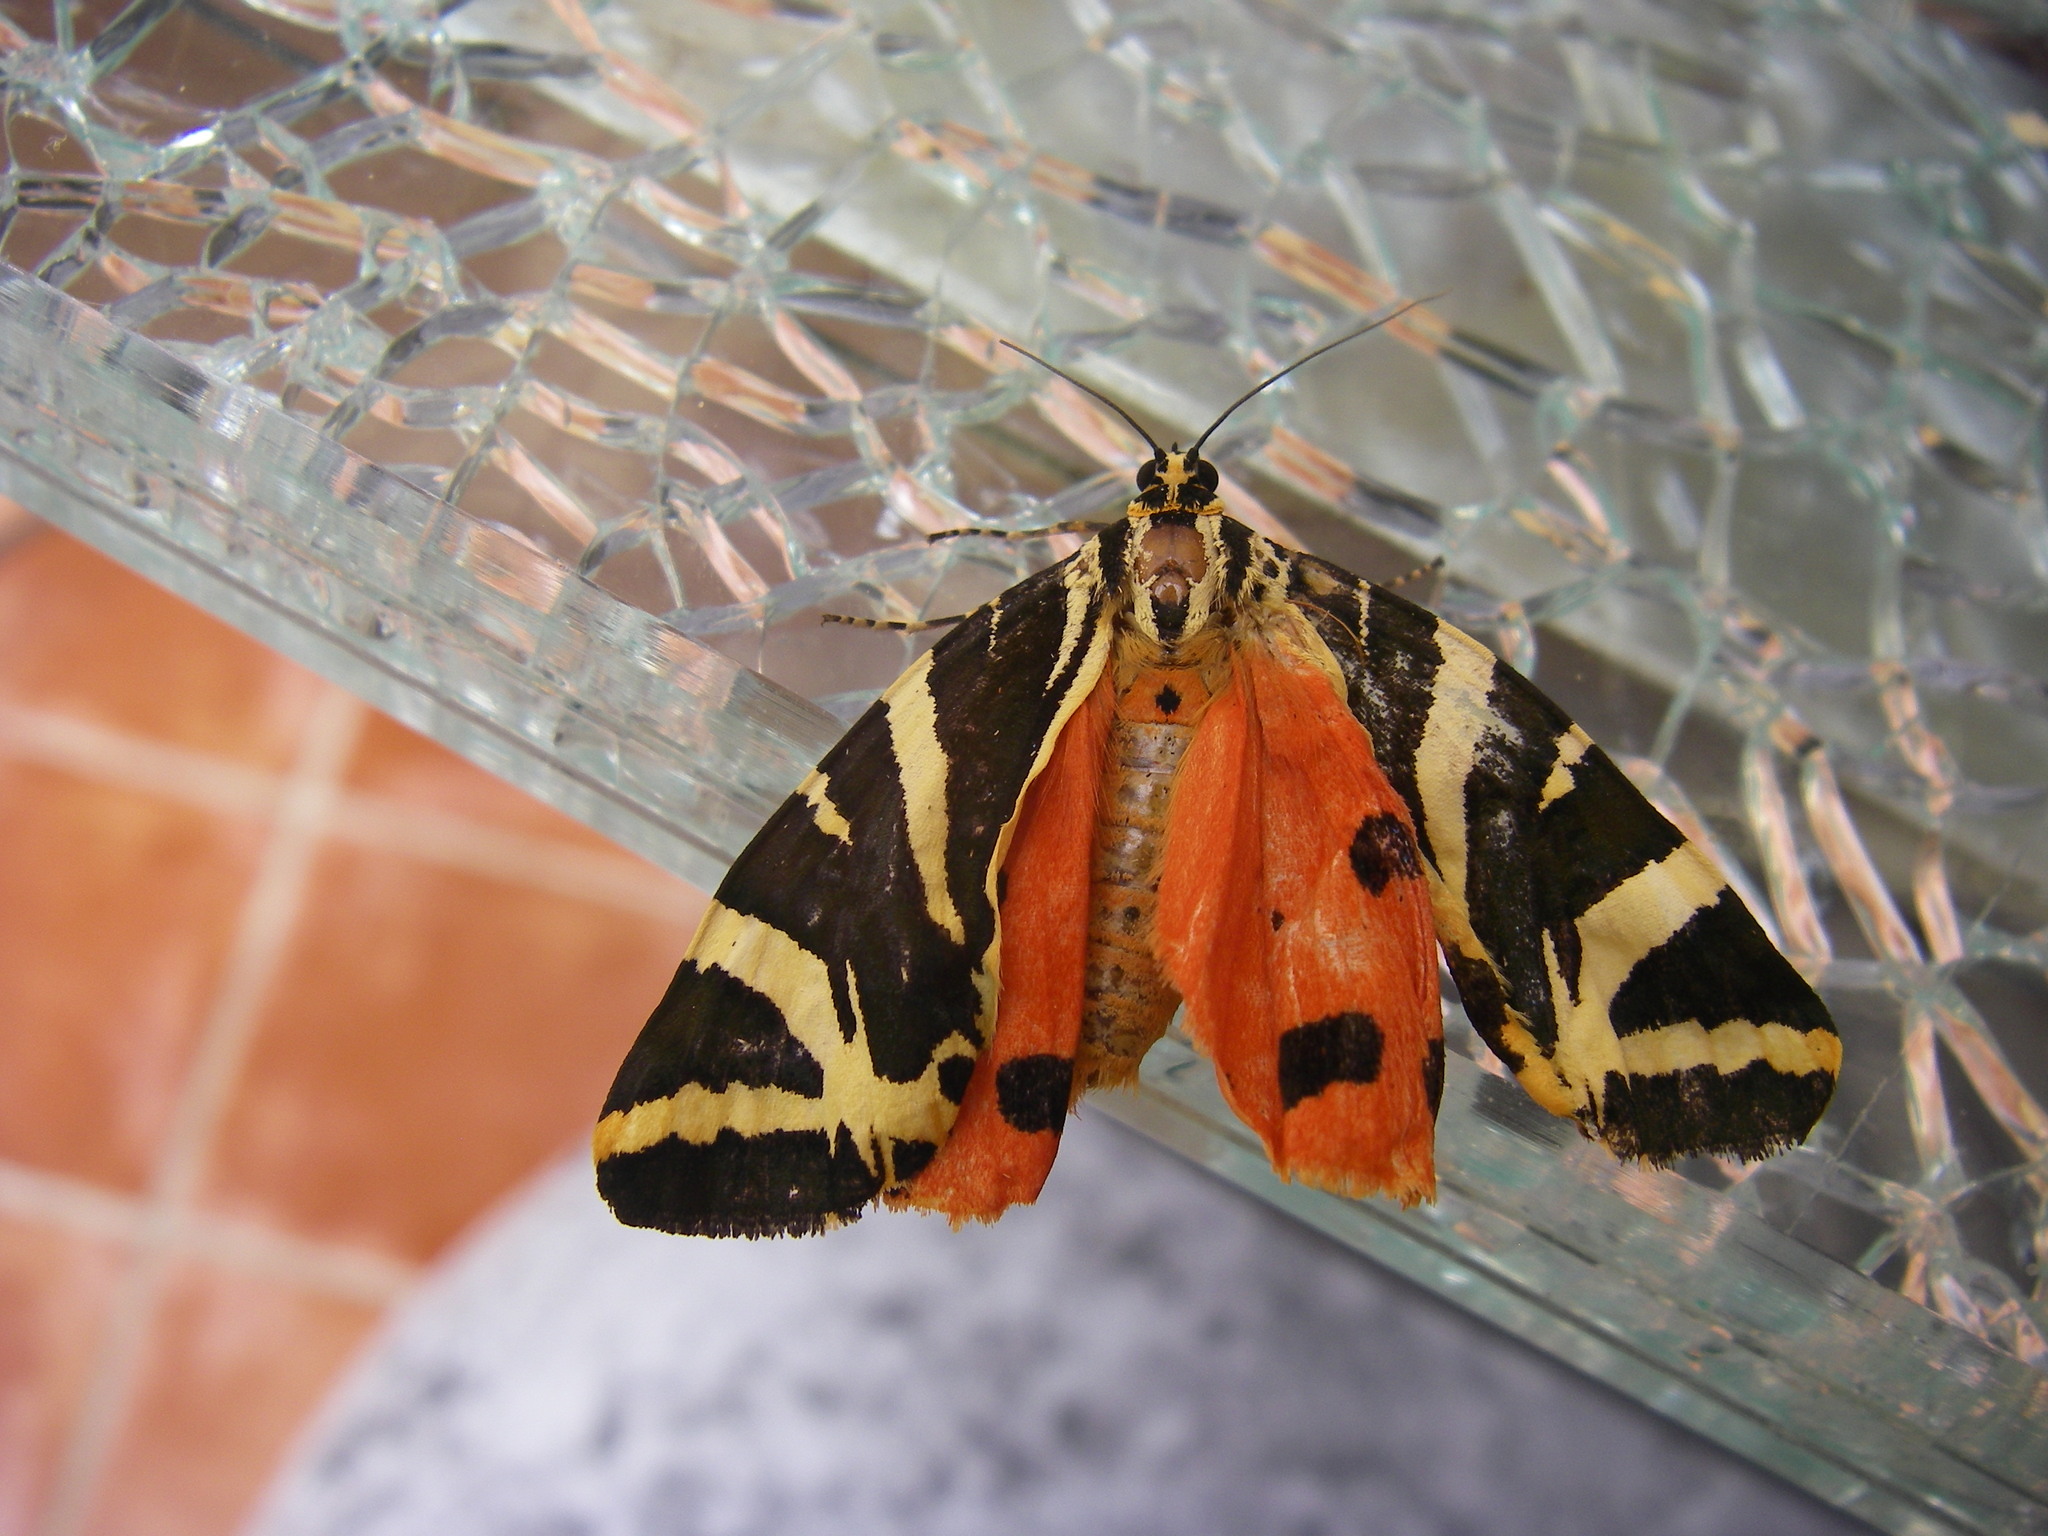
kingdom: Animalia
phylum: Arthropoda
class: Insecta
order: Lepidoptera
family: Erebidae
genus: Euplagia
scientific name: Euplagia quadripunctaria
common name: Jersey tiger
